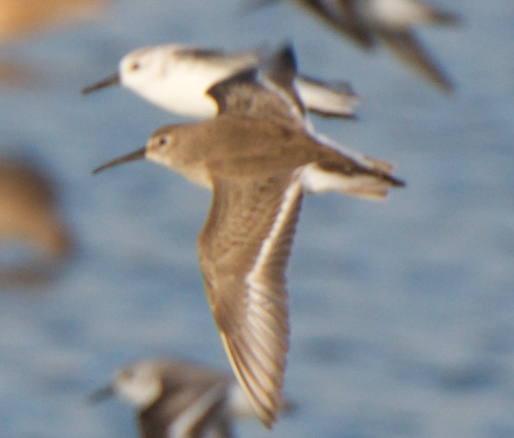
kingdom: Animalia
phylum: Chordata
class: Aves
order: Charadriiformes
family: Scolopacidae
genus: Calidris
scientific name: Calidris alpina
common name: Dunlin
